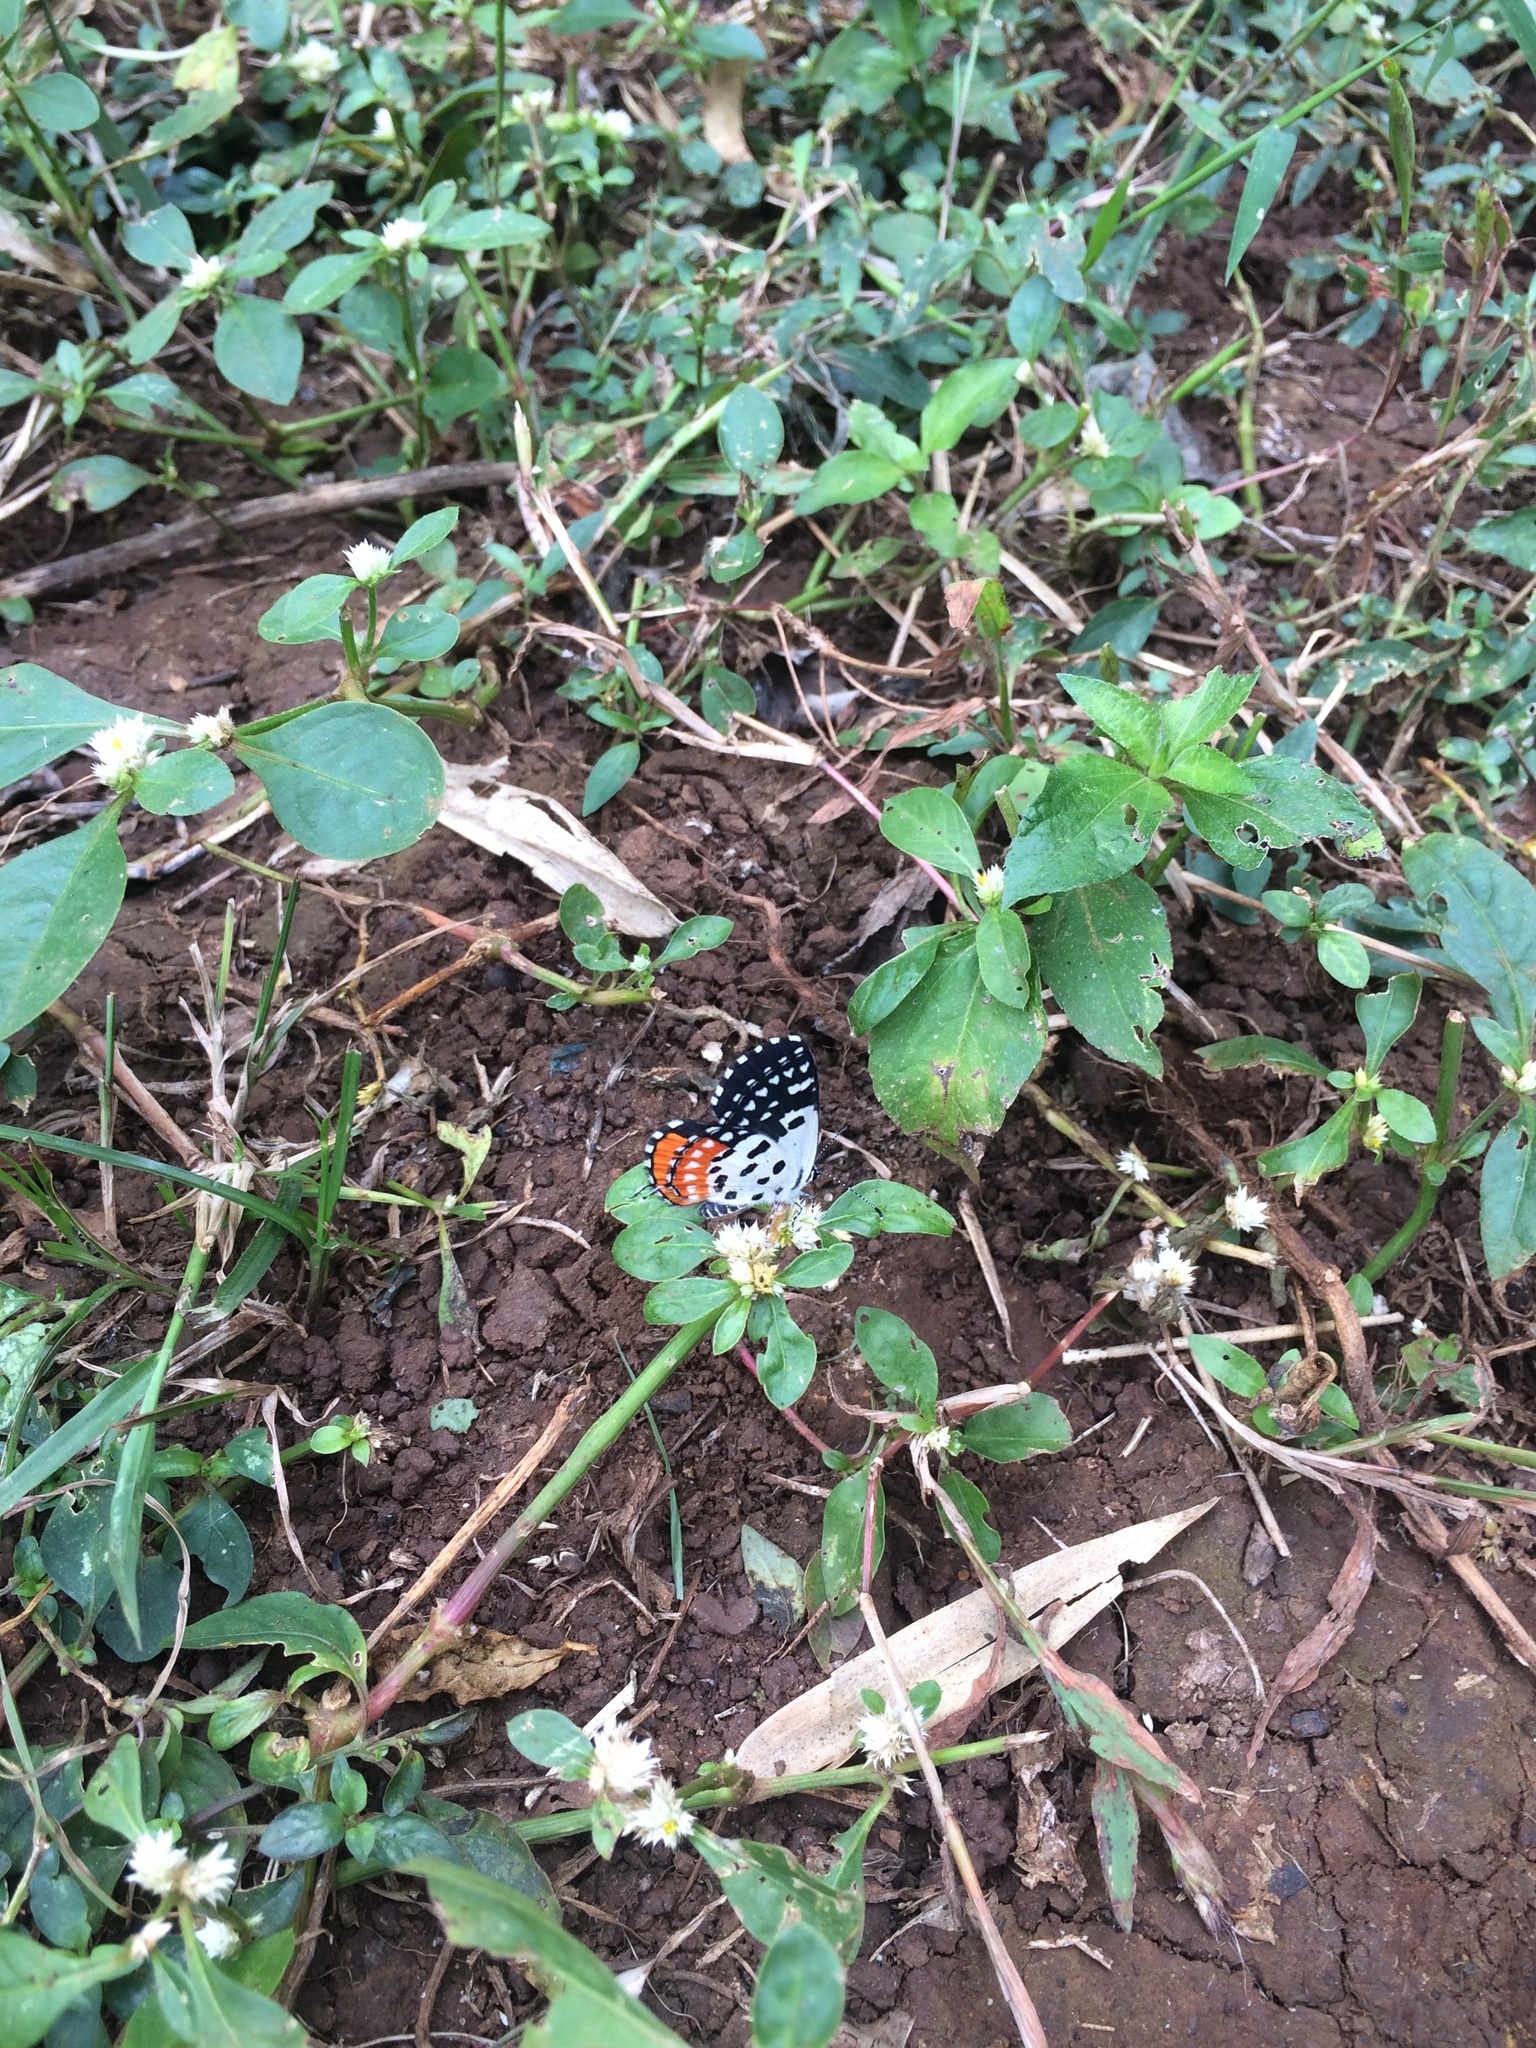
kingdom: Animalia
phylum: Arthropoda
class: Insecta
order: Lepidoptera
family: Lycaenidae
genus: Talicada
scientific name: Talicada nyseus
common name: Red pierrot
